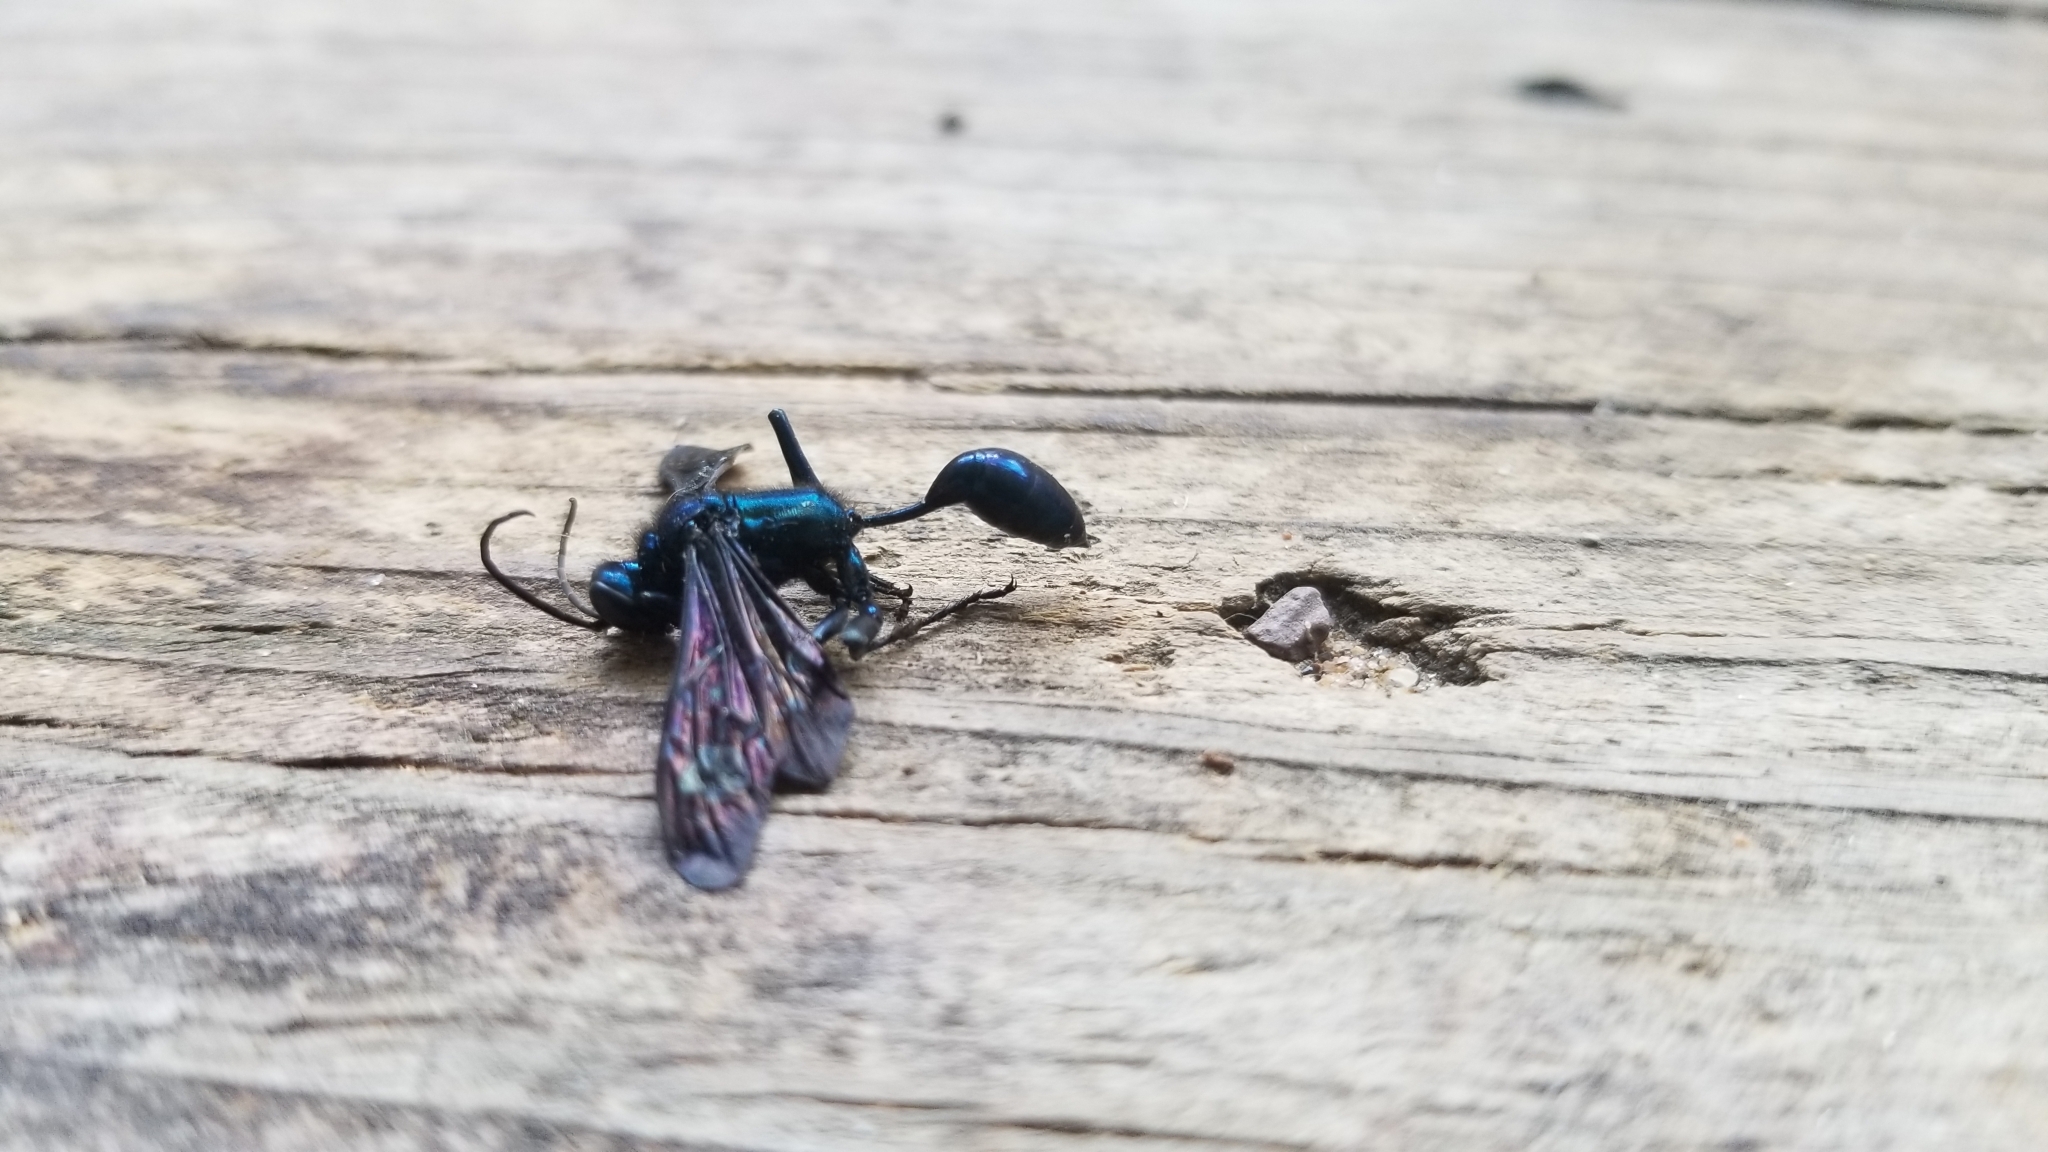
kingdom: Animalia
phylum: Arthropoda
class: Insecta
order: Hymenoptera
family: Sphecidae
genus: Chalybion
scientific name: Chalybion californicum
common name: Mud dauber
